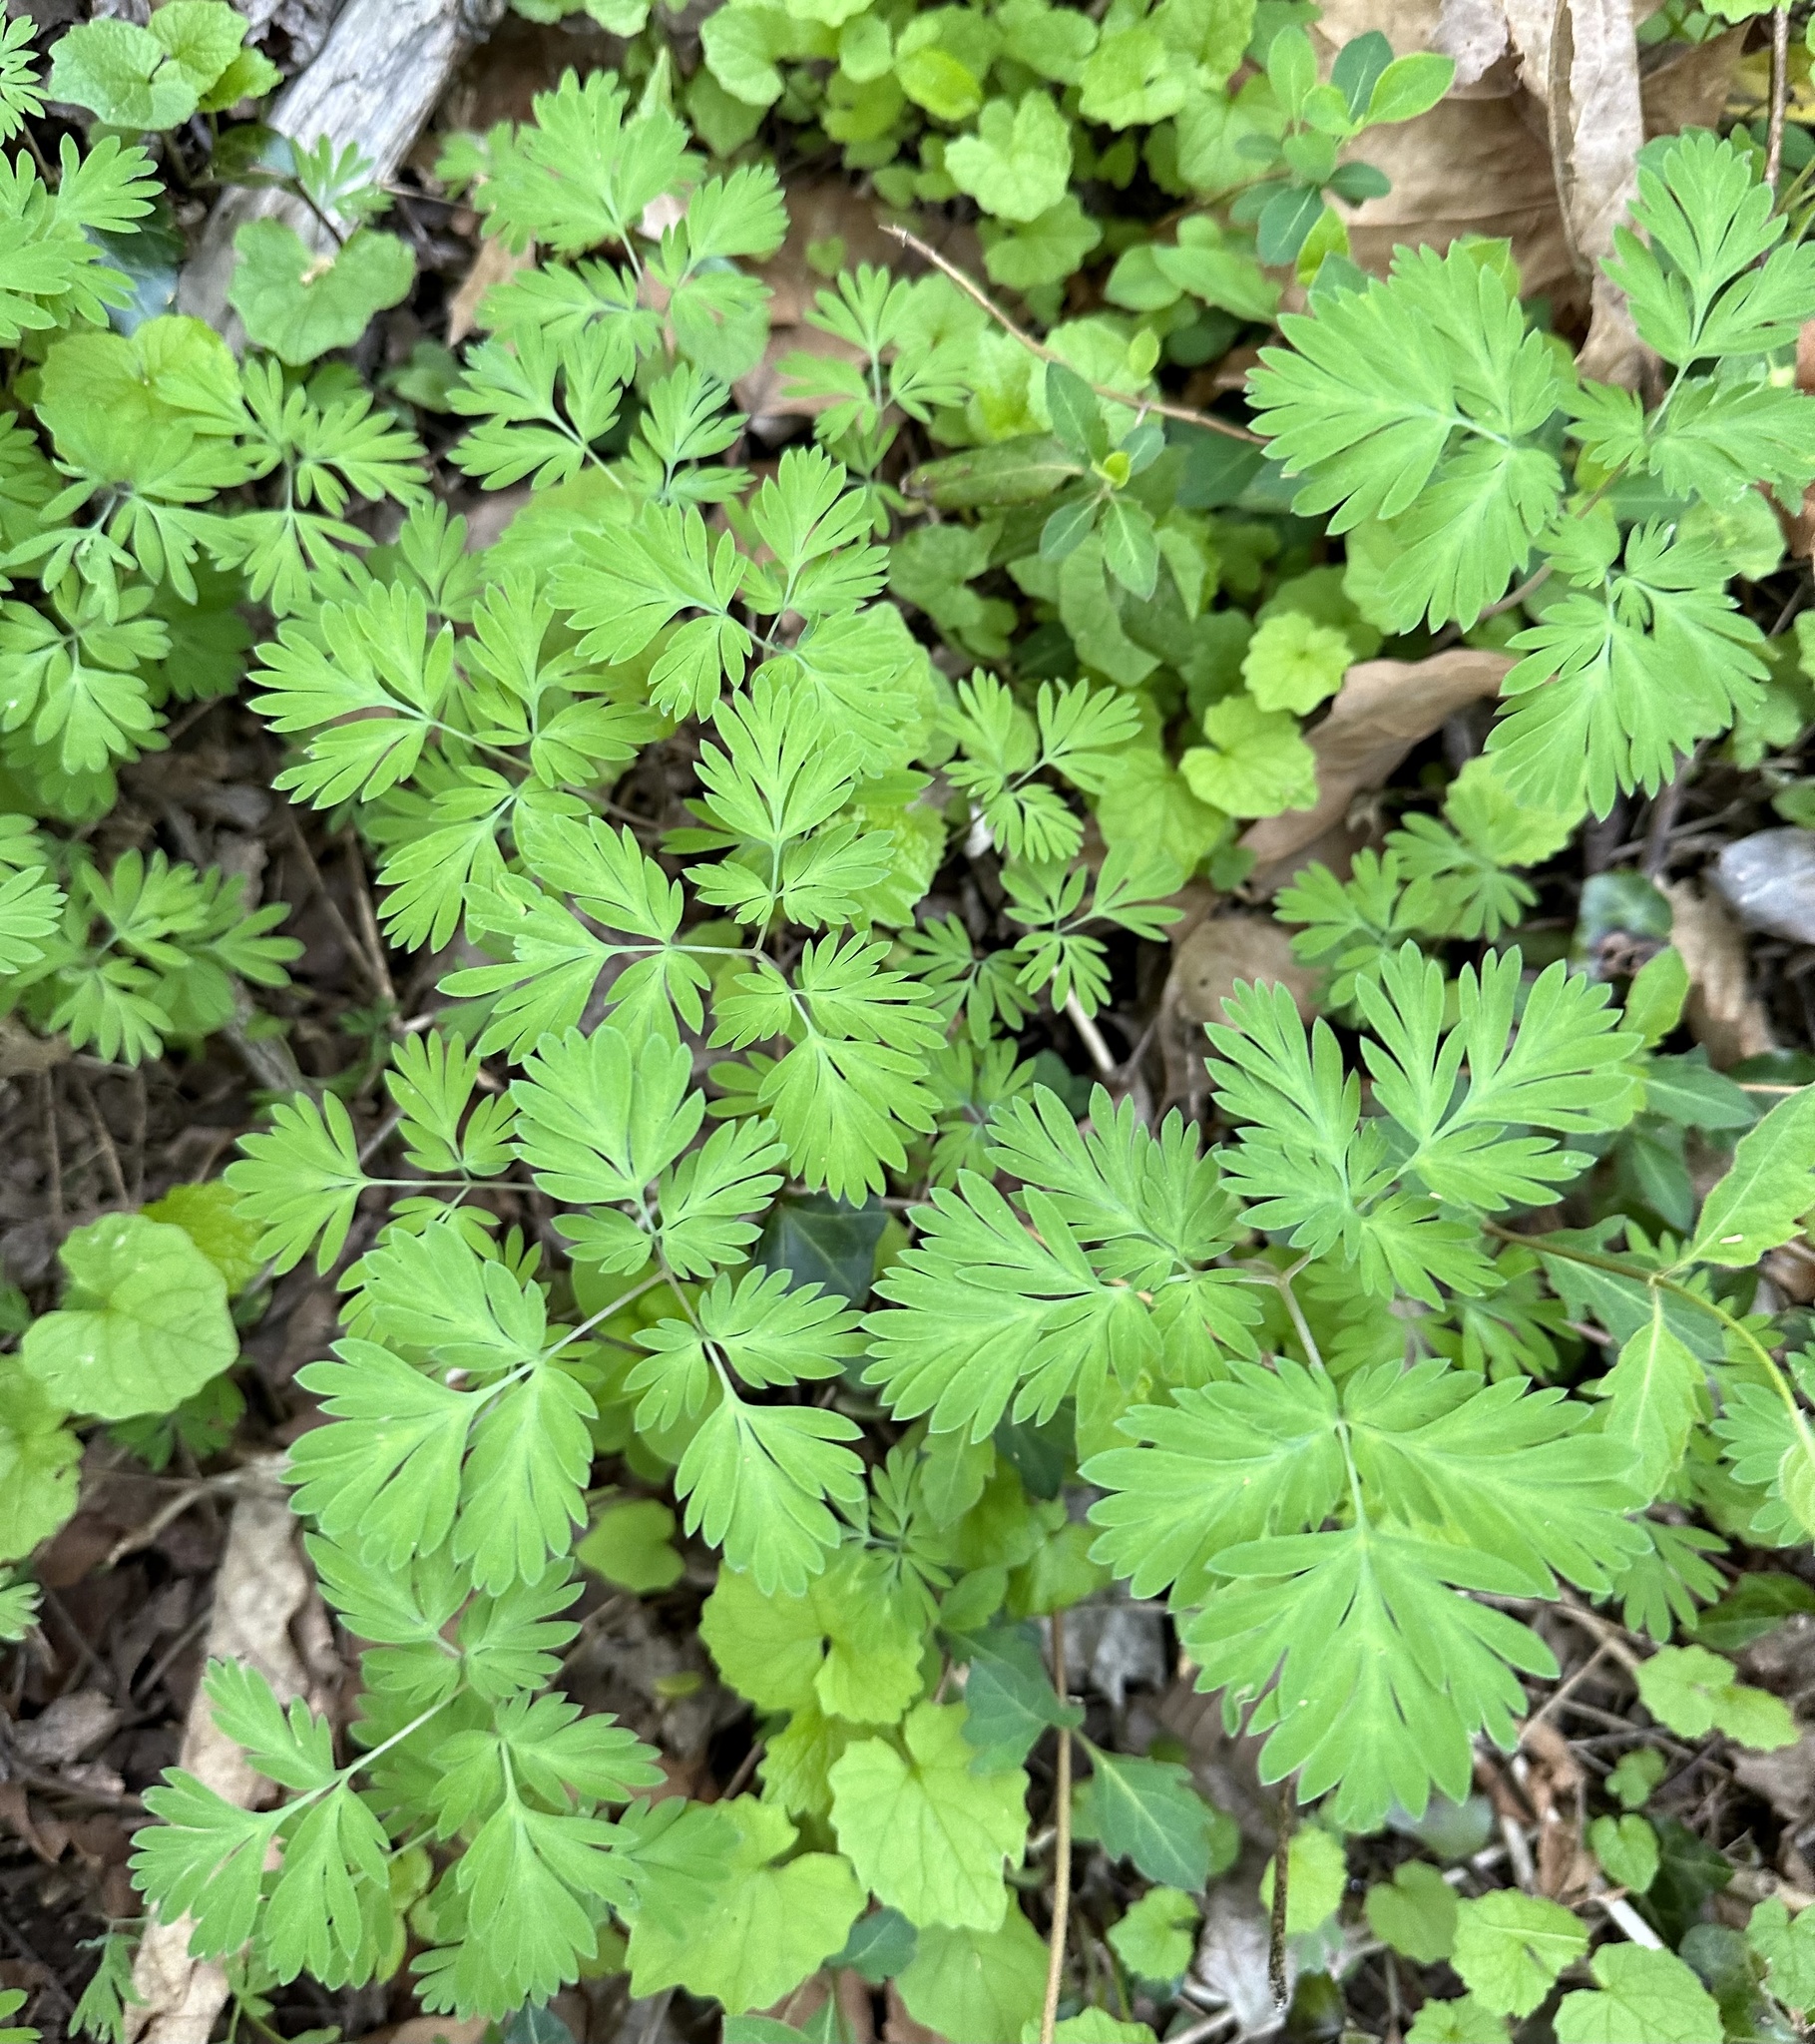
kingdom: Plantae
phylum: Tracheophyta
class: Magnoliopsida
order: Ranunculales
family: Papaveraceae
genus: Corydalis
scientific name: Corydalis flavula
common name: Yellow corydalis
